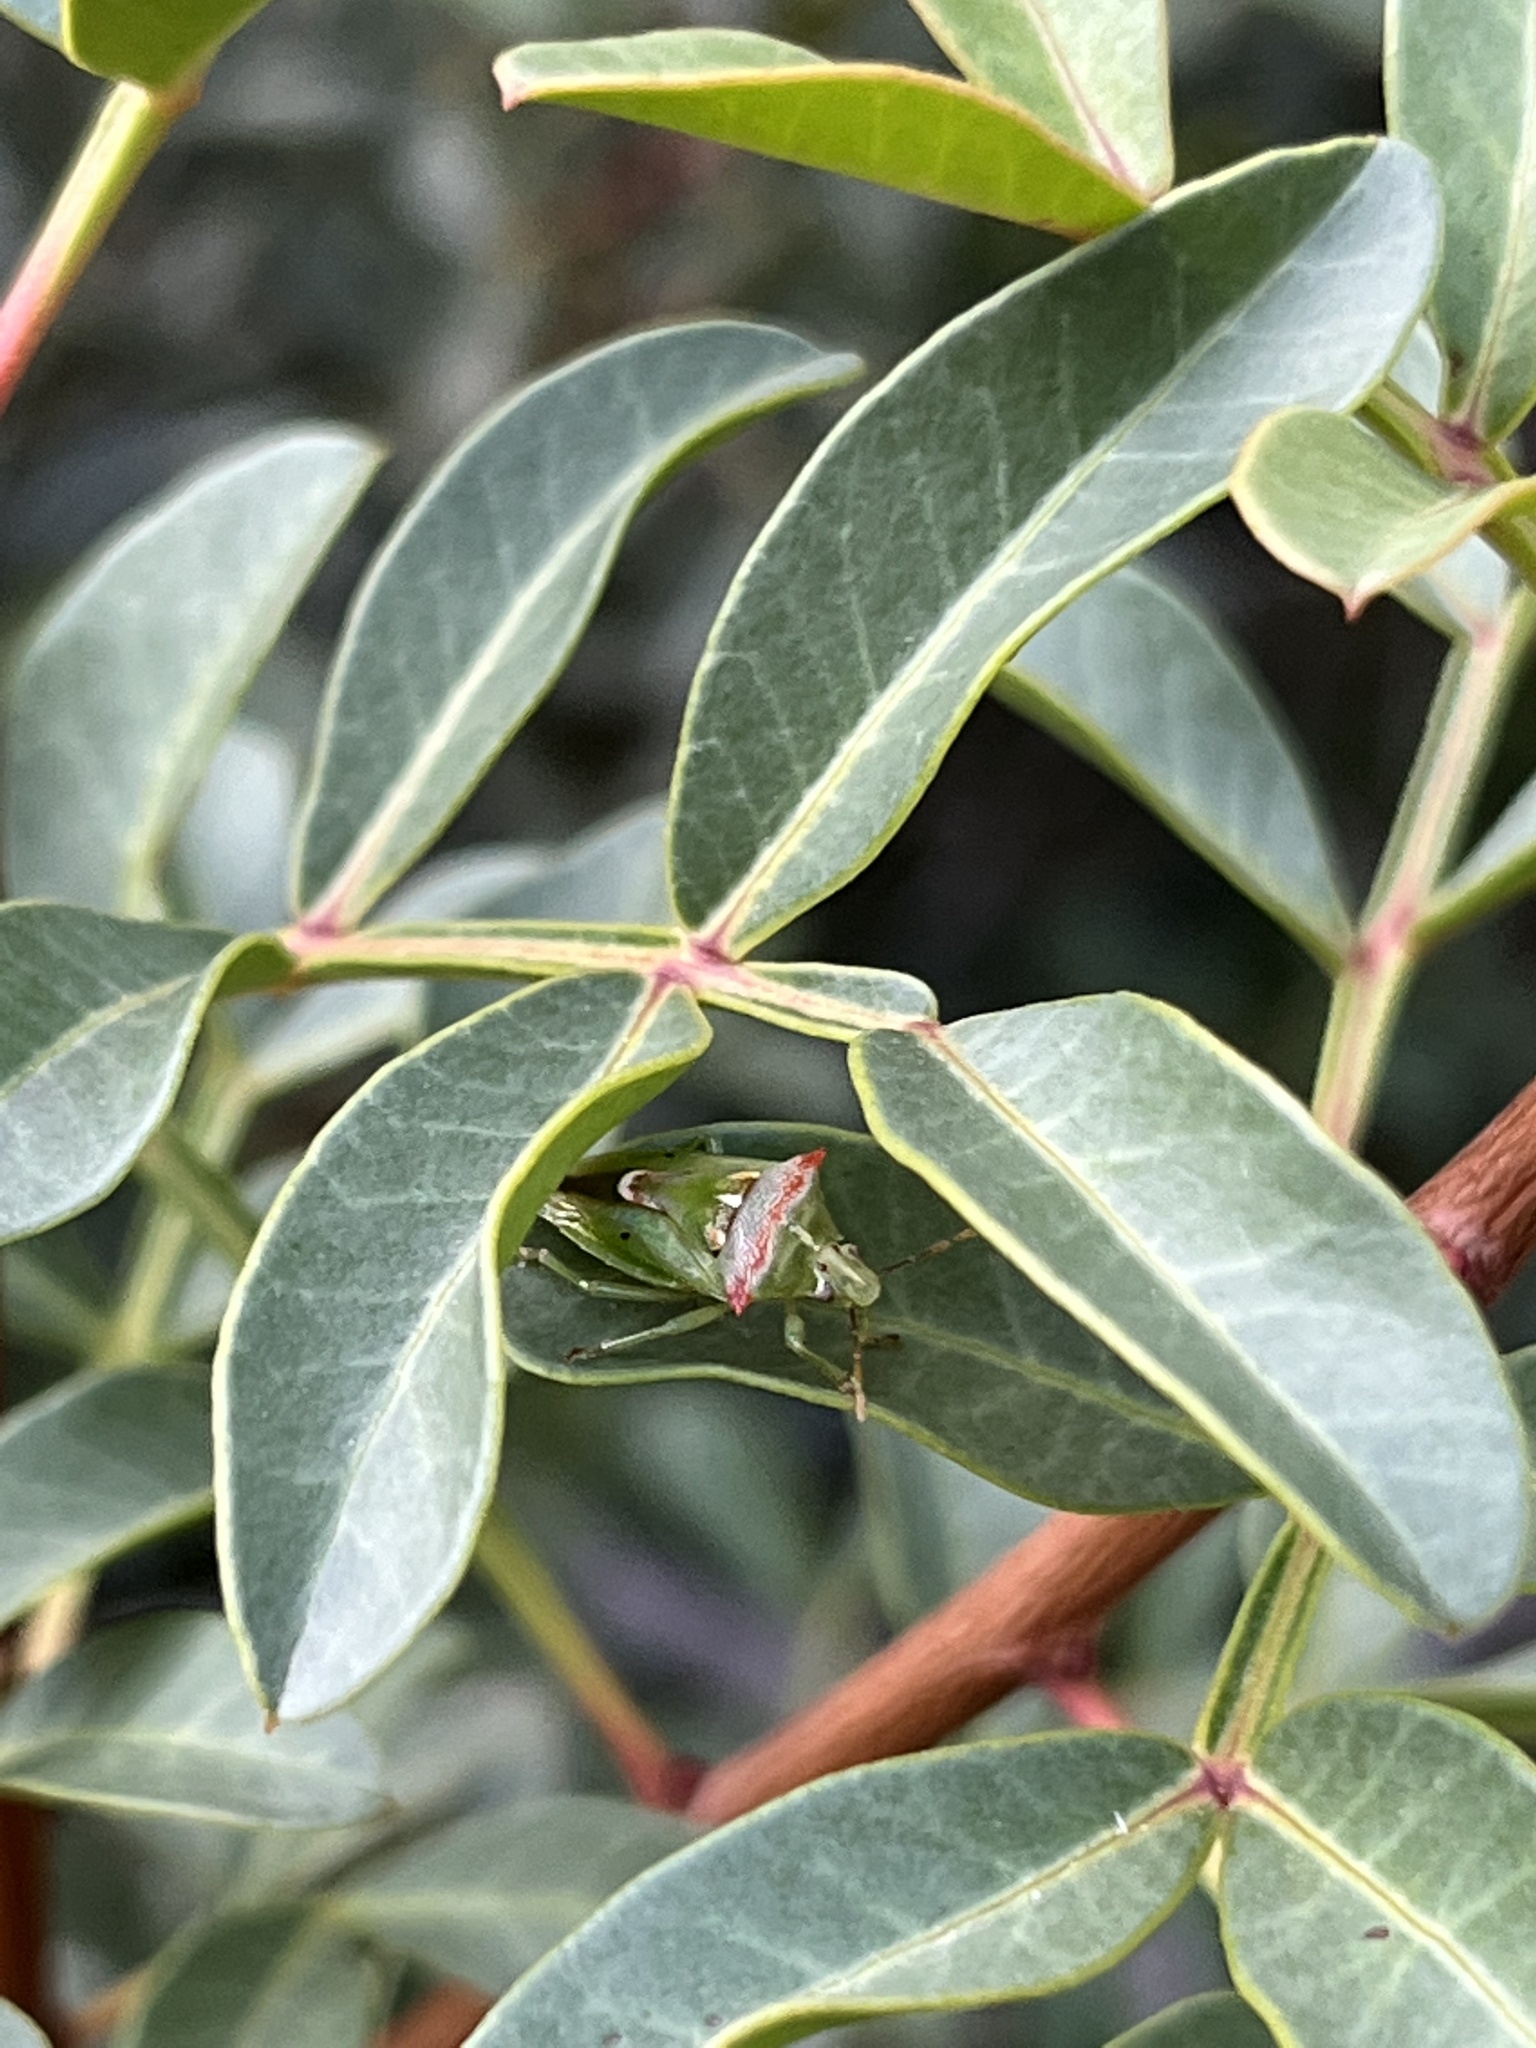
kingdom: Animalia
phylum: Arthropoda
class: Insecta
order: Hemiptera
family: Pentatomidae
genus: Tylospilus
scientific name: Tylospilus acutissimus
